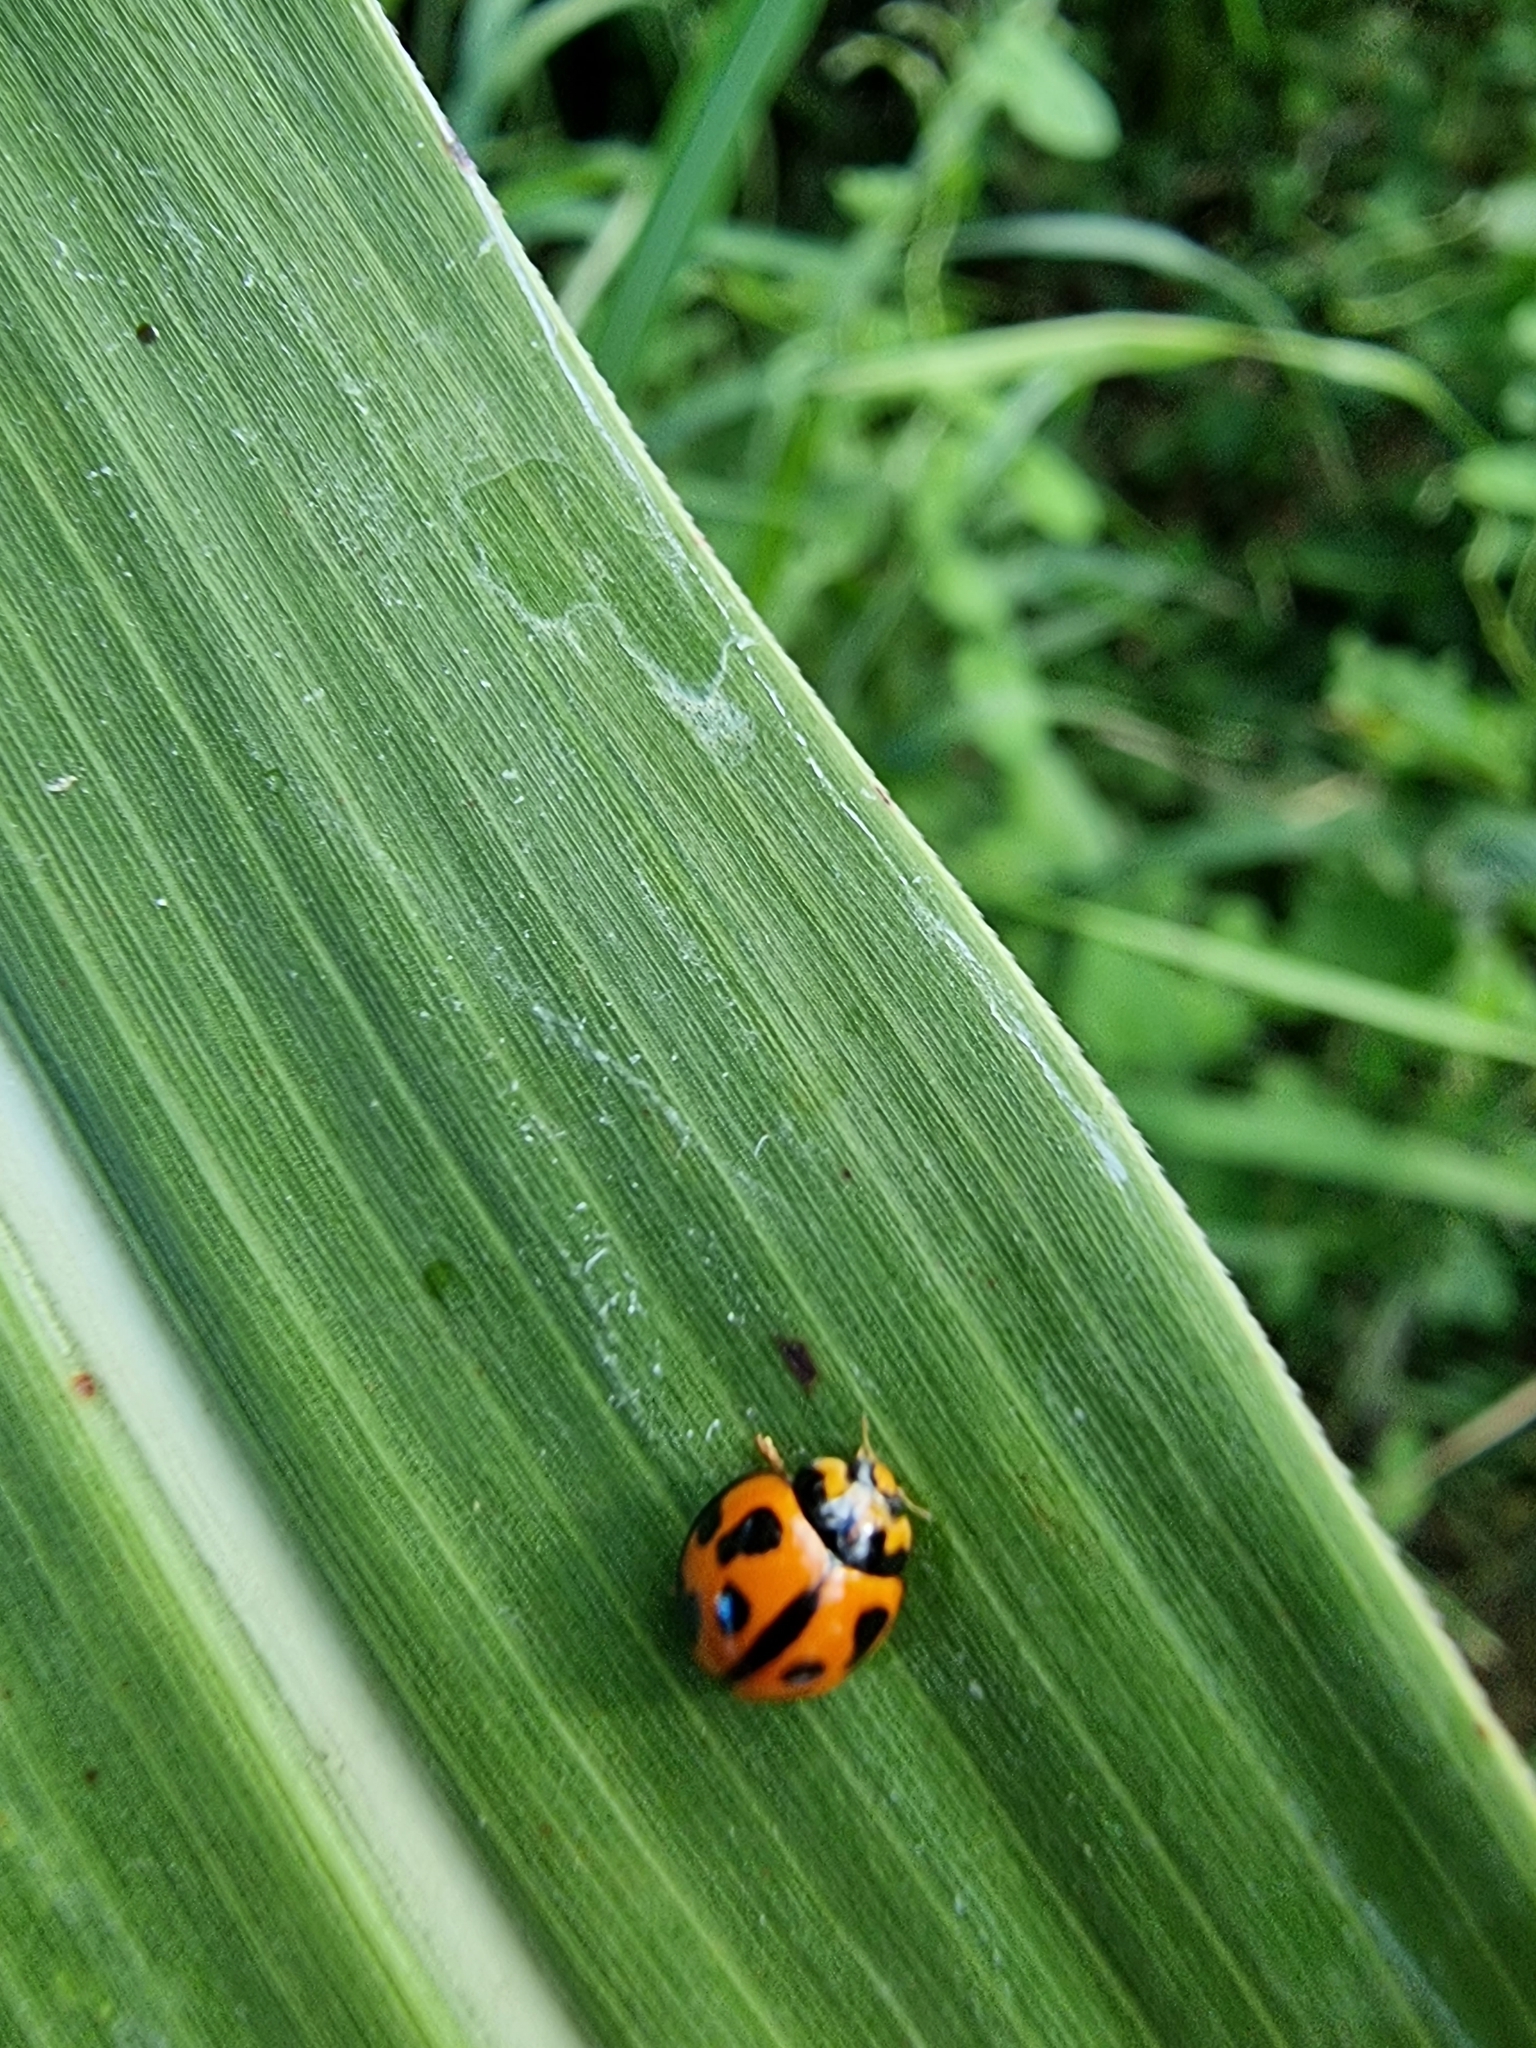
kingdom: Animalia
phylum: Arthropoda
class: Insecta
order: Coleoptera
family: Coccinellidae
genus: Coelophora
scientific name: Coelophora inaequalis
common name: Common australian lady beetle
